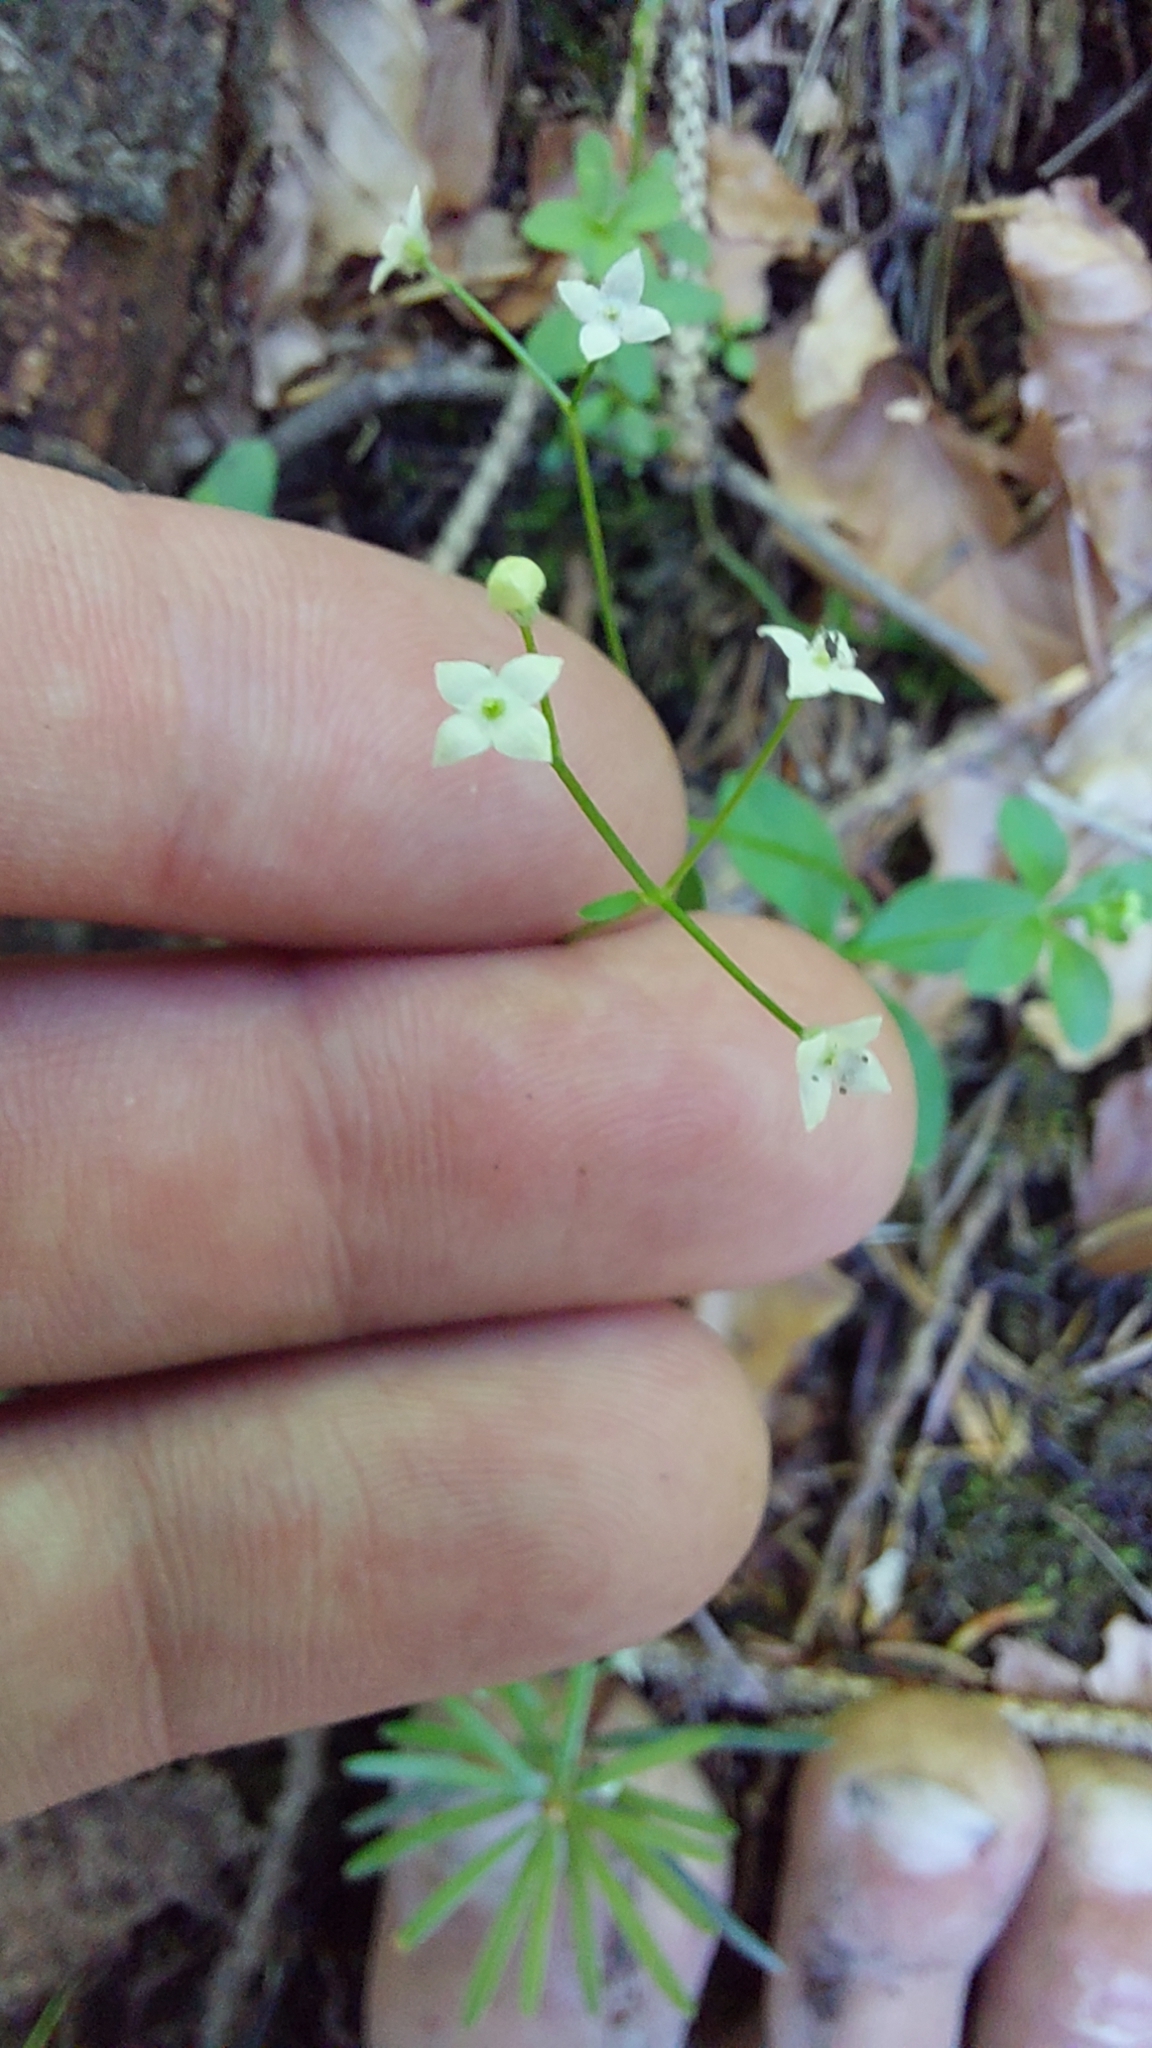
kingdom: Plantae
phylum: Tracheophyta
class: Magnoliopsida
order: Gentianales
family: Rubiaceae
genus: Galium
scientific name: Galium rotundifolium
